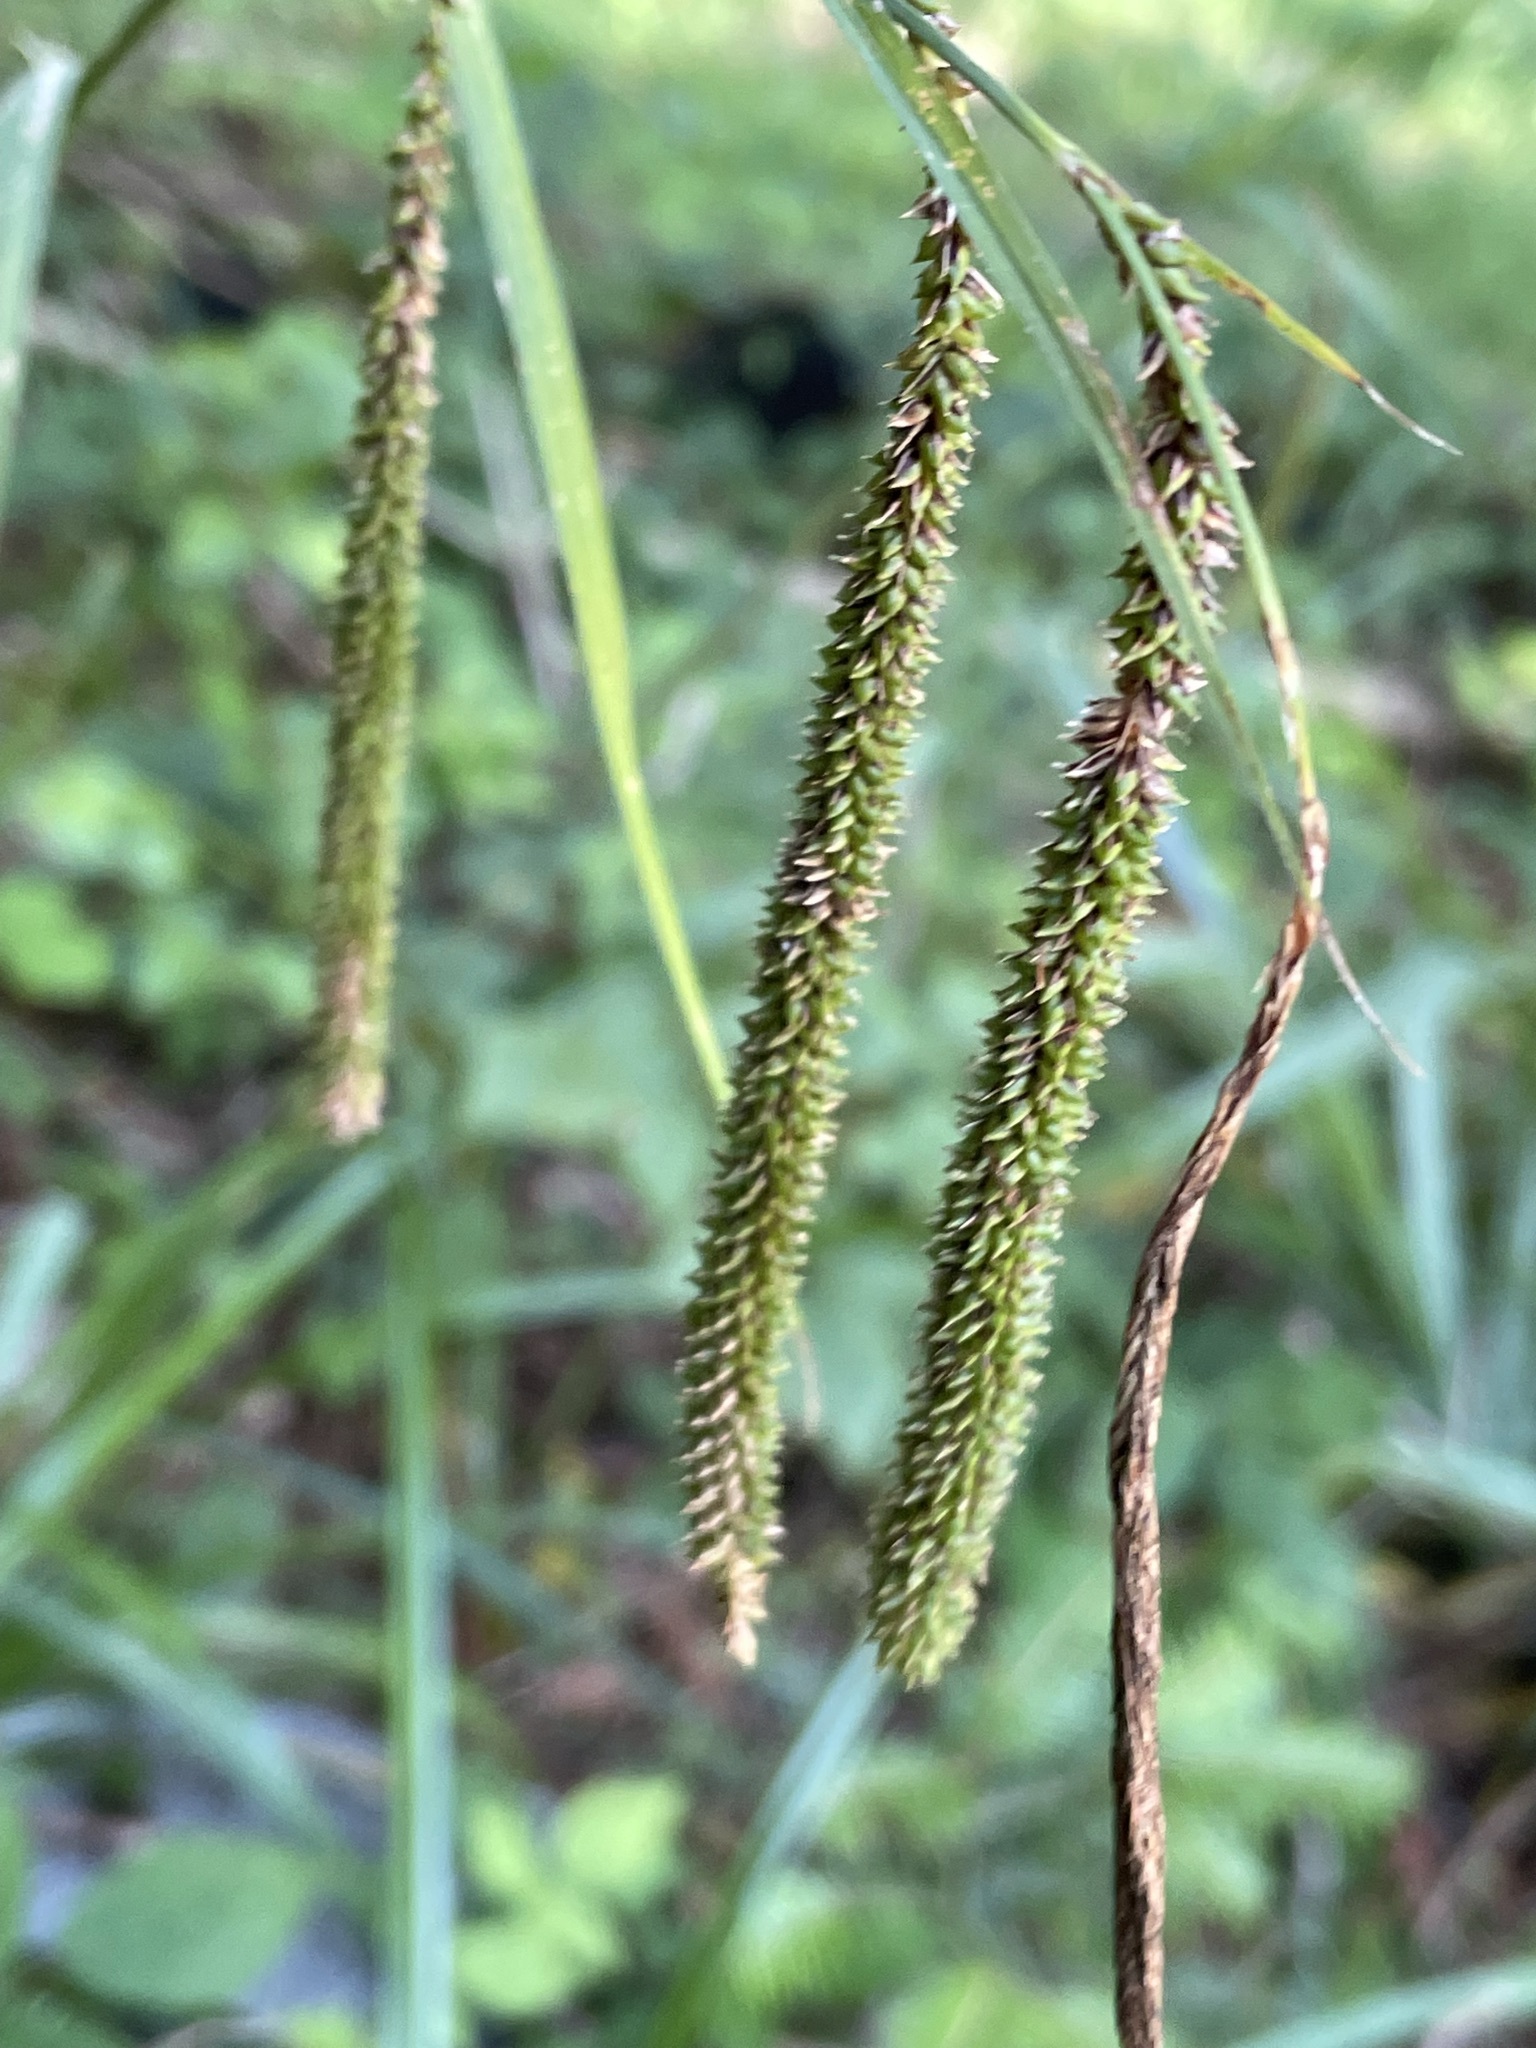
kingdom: Plantae
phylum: Tracheophyta
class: Liliopsida
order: Poales
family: Cyperaceae
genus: Carex
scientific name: Carex agastachys
